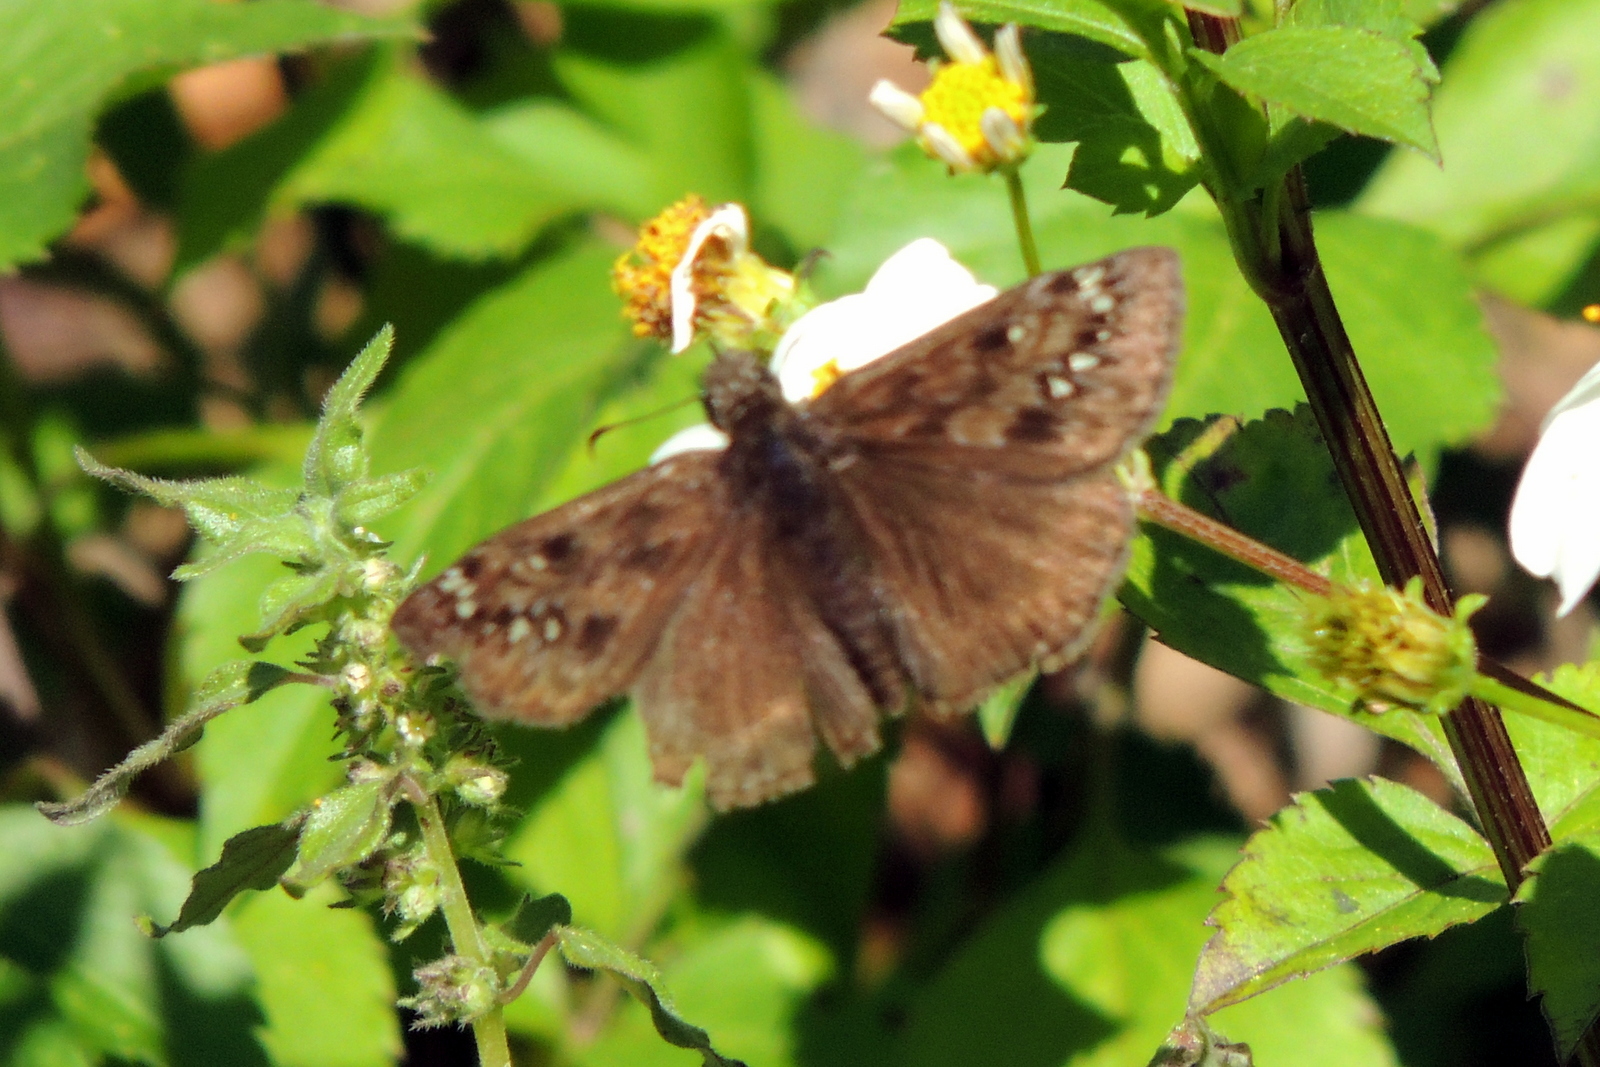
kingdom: Animalia
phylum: Arthropoda
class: Insecta
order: Lepidoptera
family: Hesperiidae
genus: Erynnis
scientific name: Erynnis horatius
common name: Horace's duskywing
